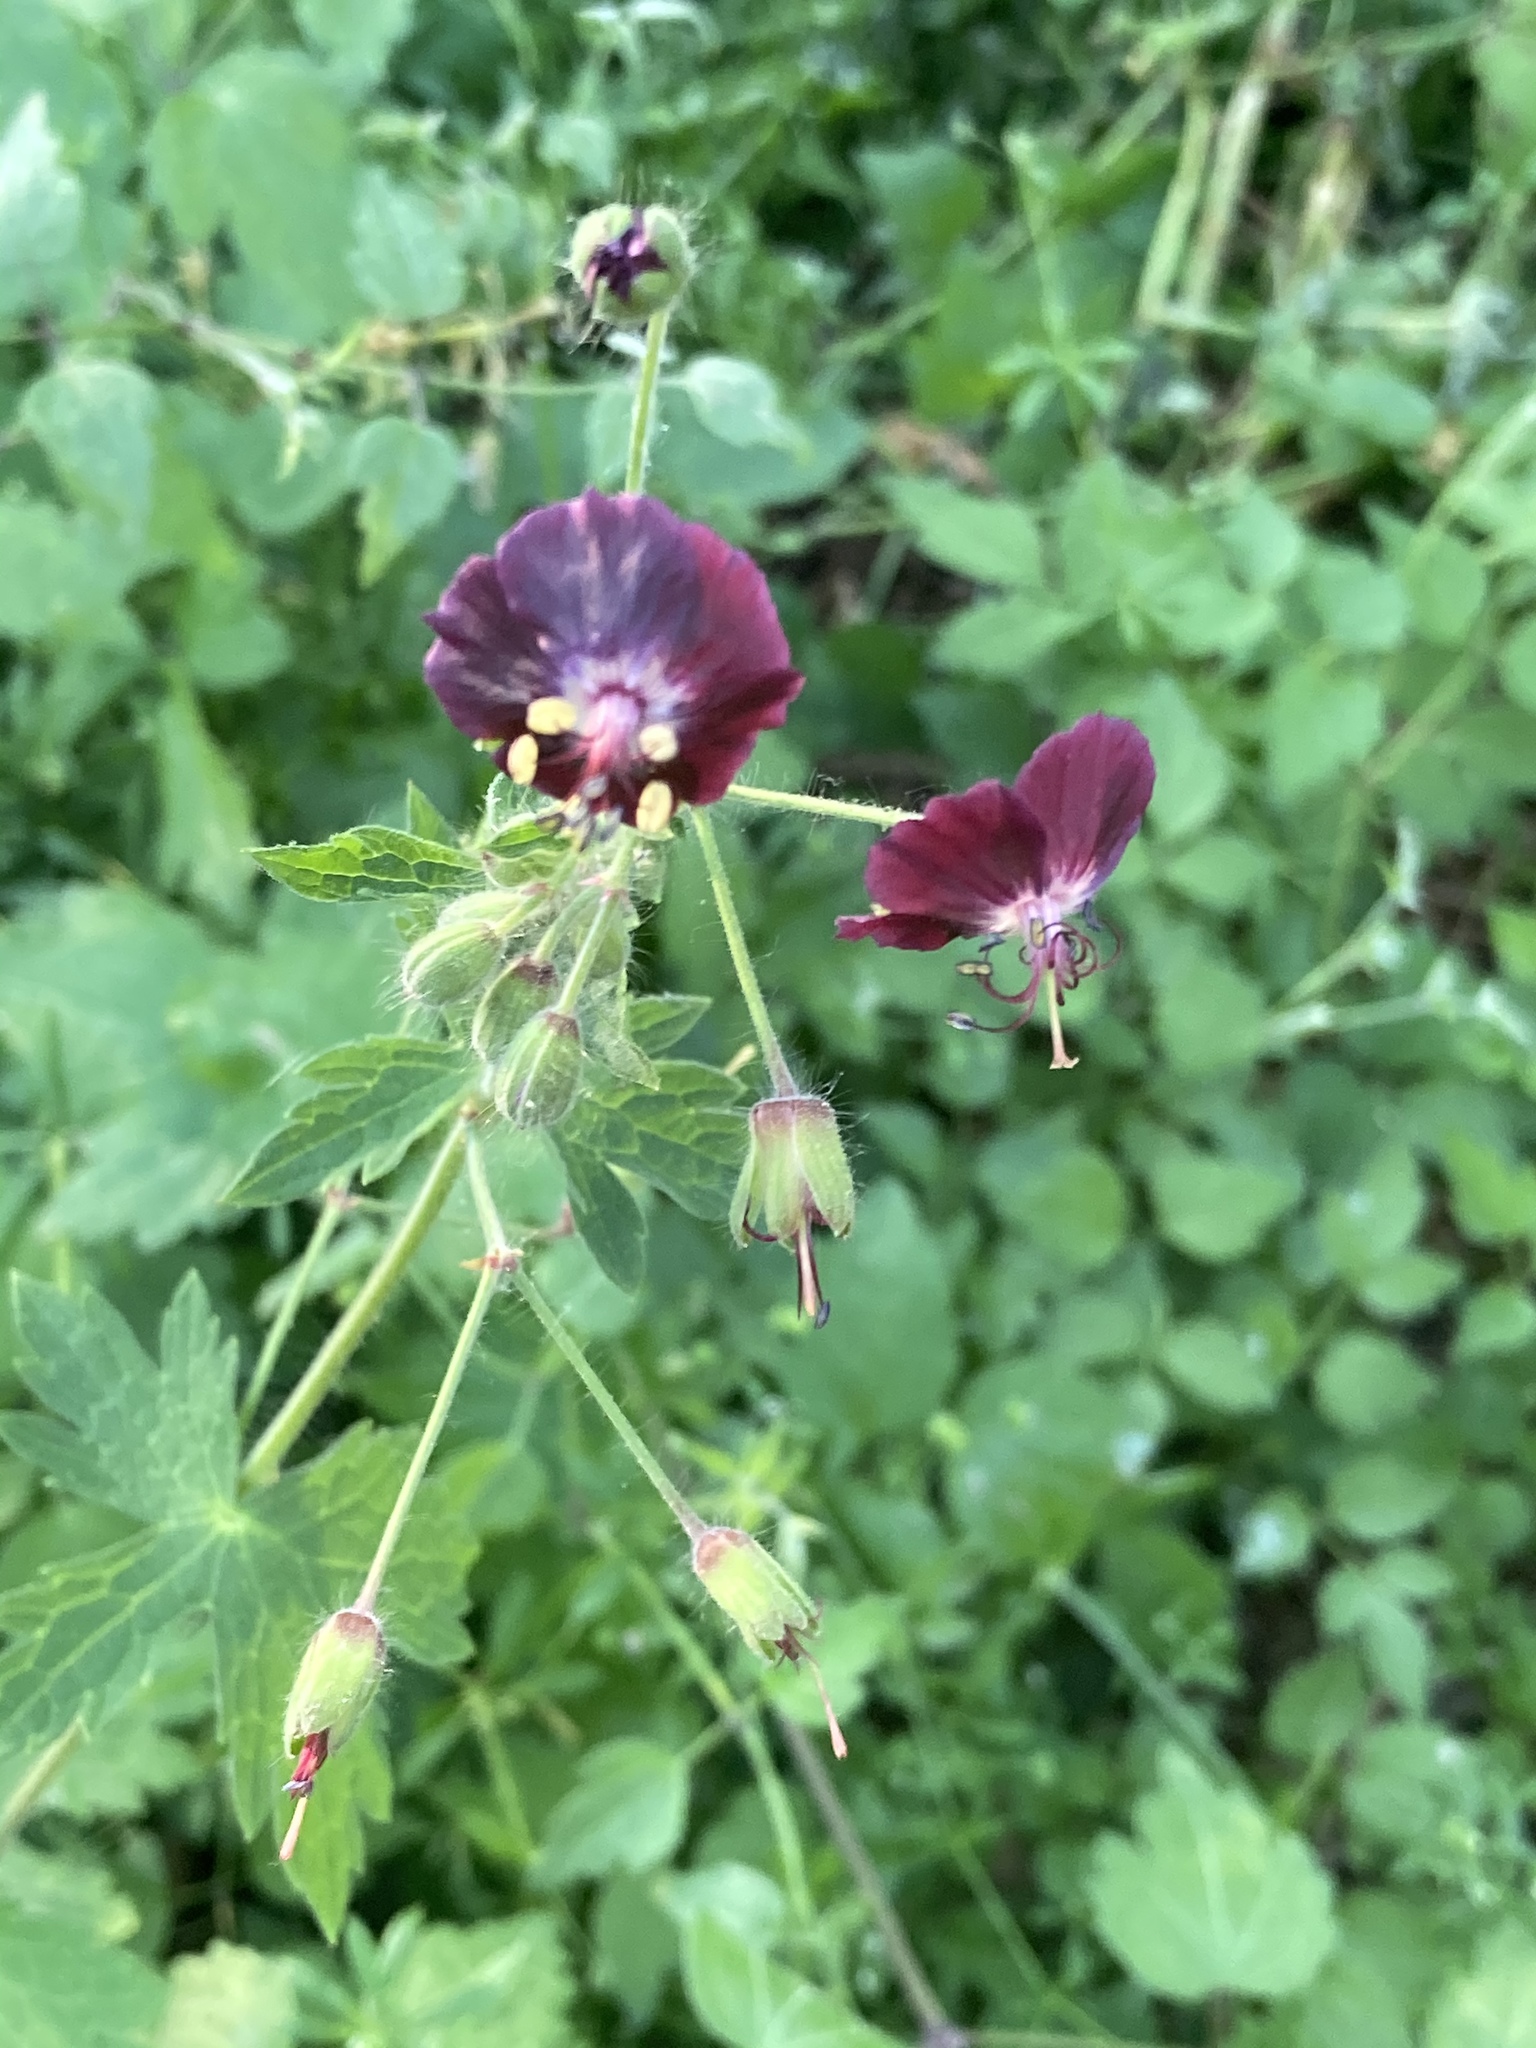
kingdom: Plantae
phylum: Tracheophyta
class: Magnoliopsida
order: Geraniales
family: Geraniaceae
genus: Geranium
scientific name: Geranium phaeum
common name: Dusky crane's-bill
